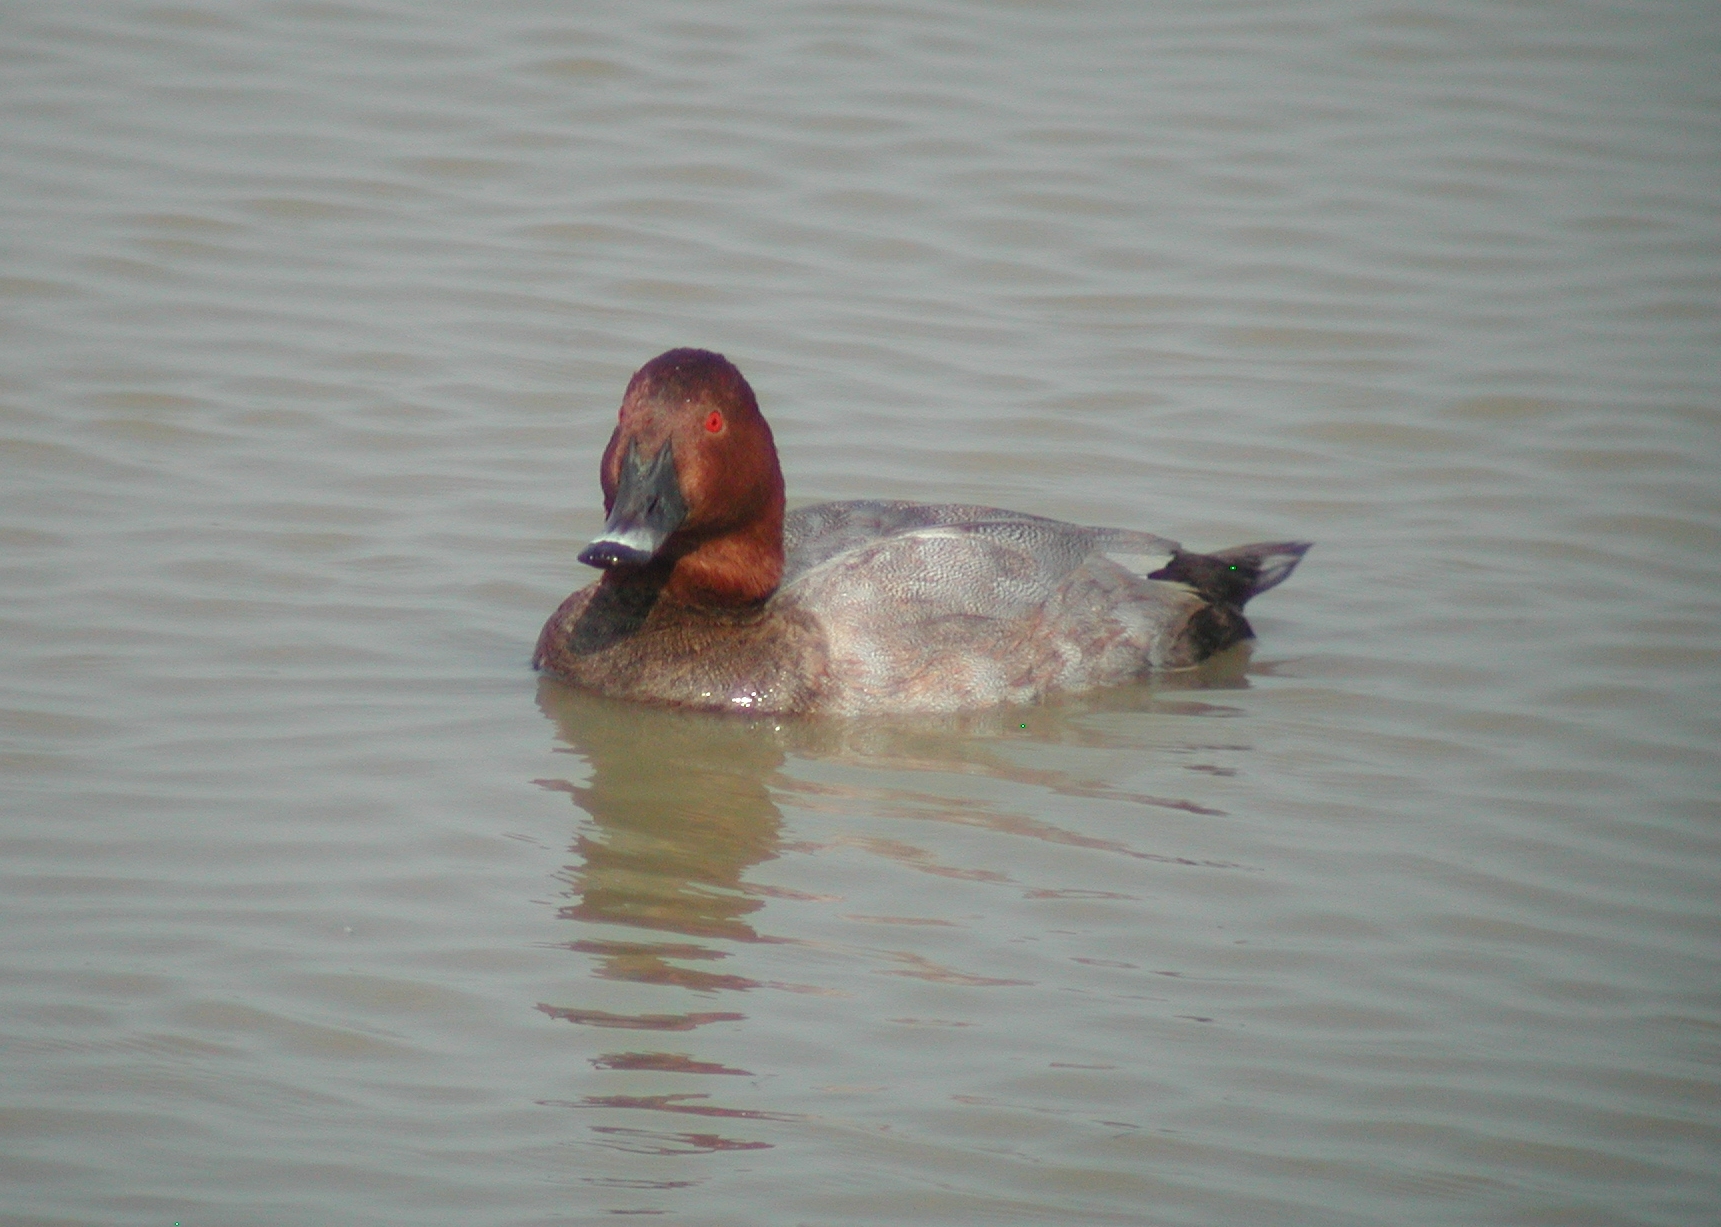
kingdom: Animalia
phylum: Chordata
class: Aves
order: Anseriformes
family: Anatidae
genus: Aythya
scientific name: Aythya ferina
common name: Common pochard
